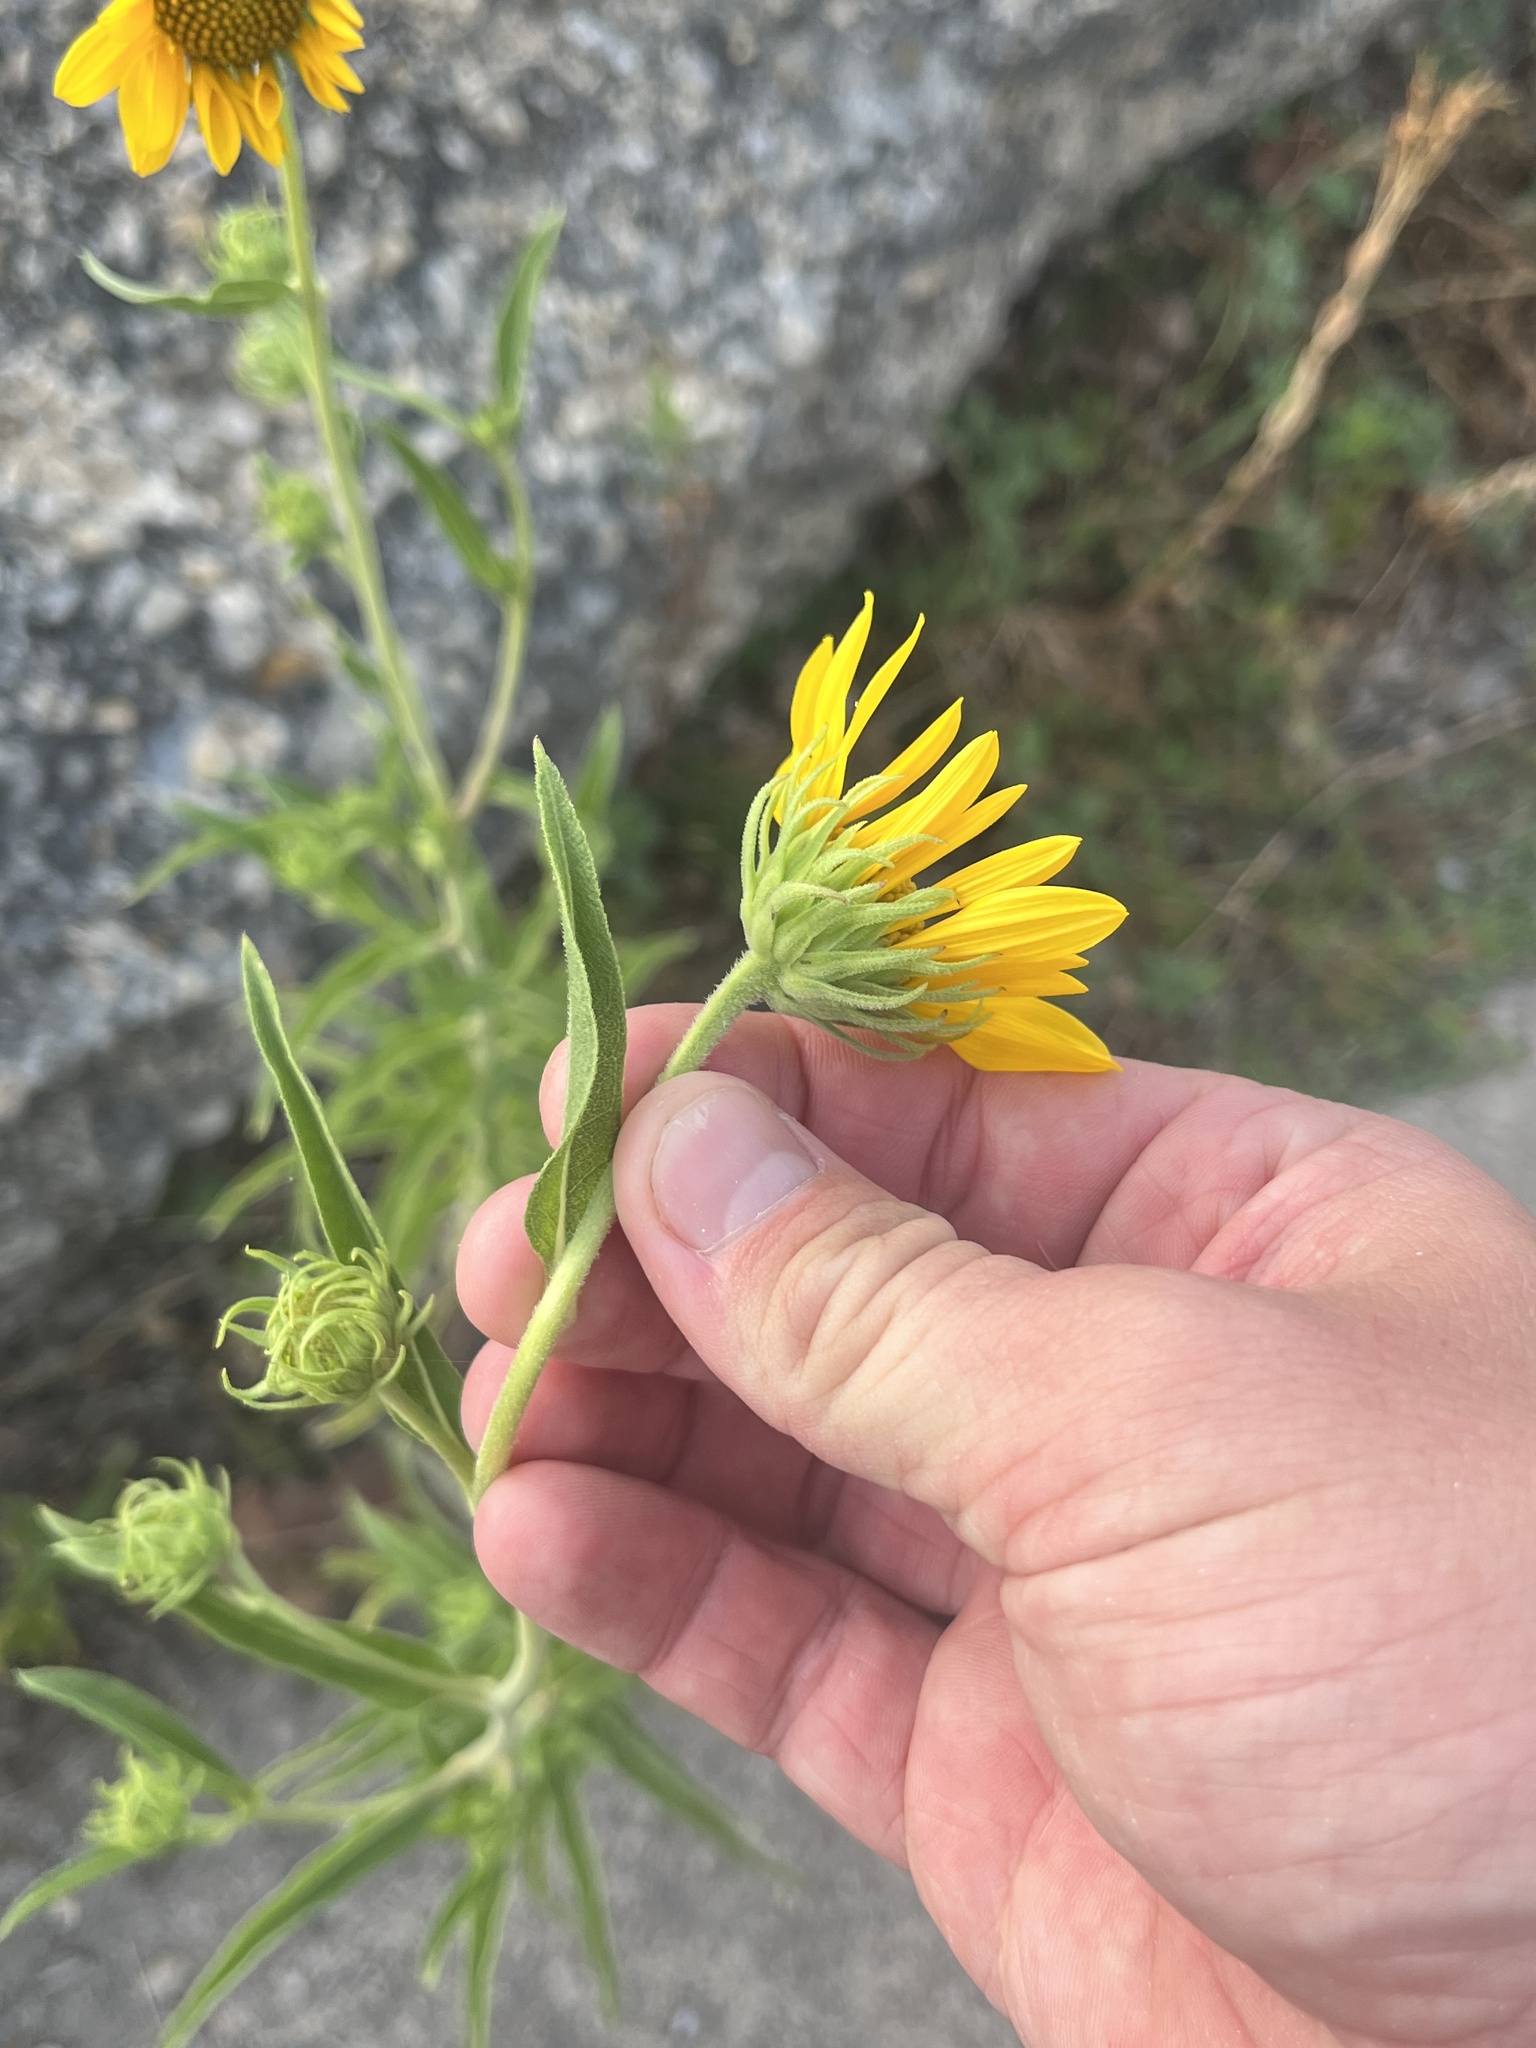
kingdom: Plantae
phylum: Tracheophyta
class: Magnoliopsida
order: Asterales
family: Asteraceae
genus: Helianthus
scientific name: Helianthus maximiliani
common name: Maximilian's sunflower
